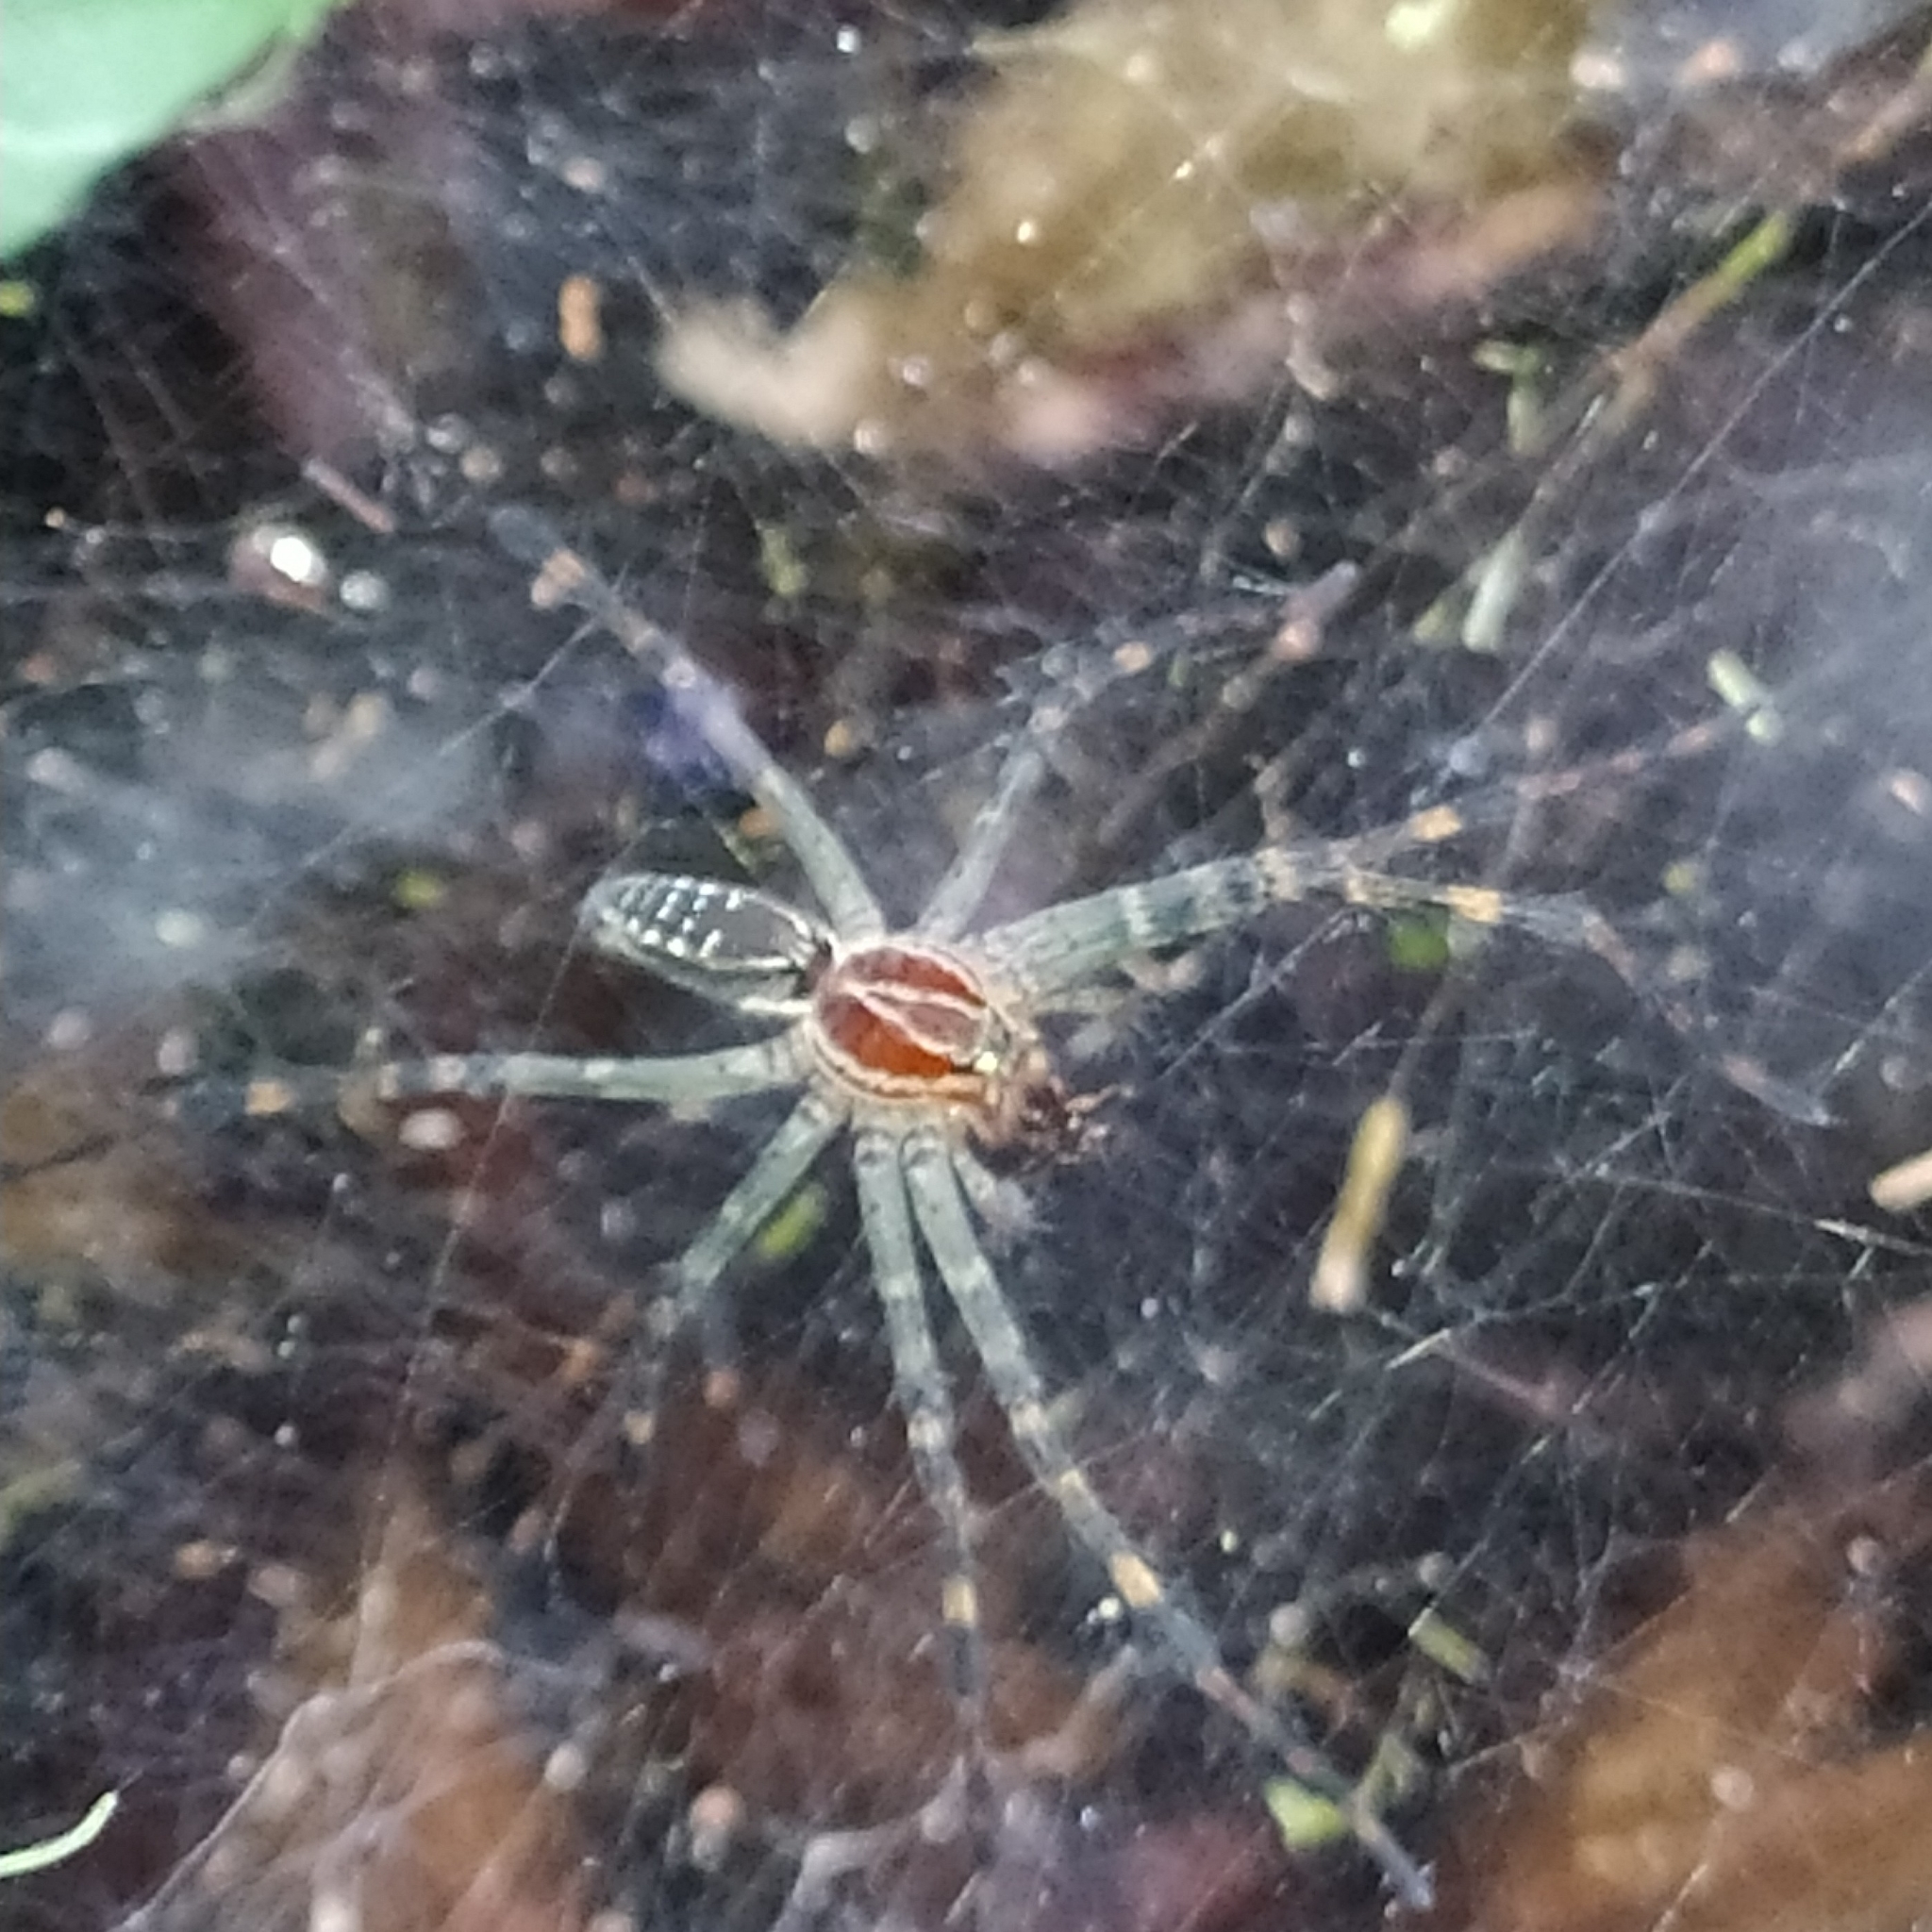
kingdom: Animalia
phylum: Arthropoda
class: Arachnida
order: Araneae
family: Lycosidae
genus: Aglaoctenus
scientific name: Aglaoctenus castaneus
